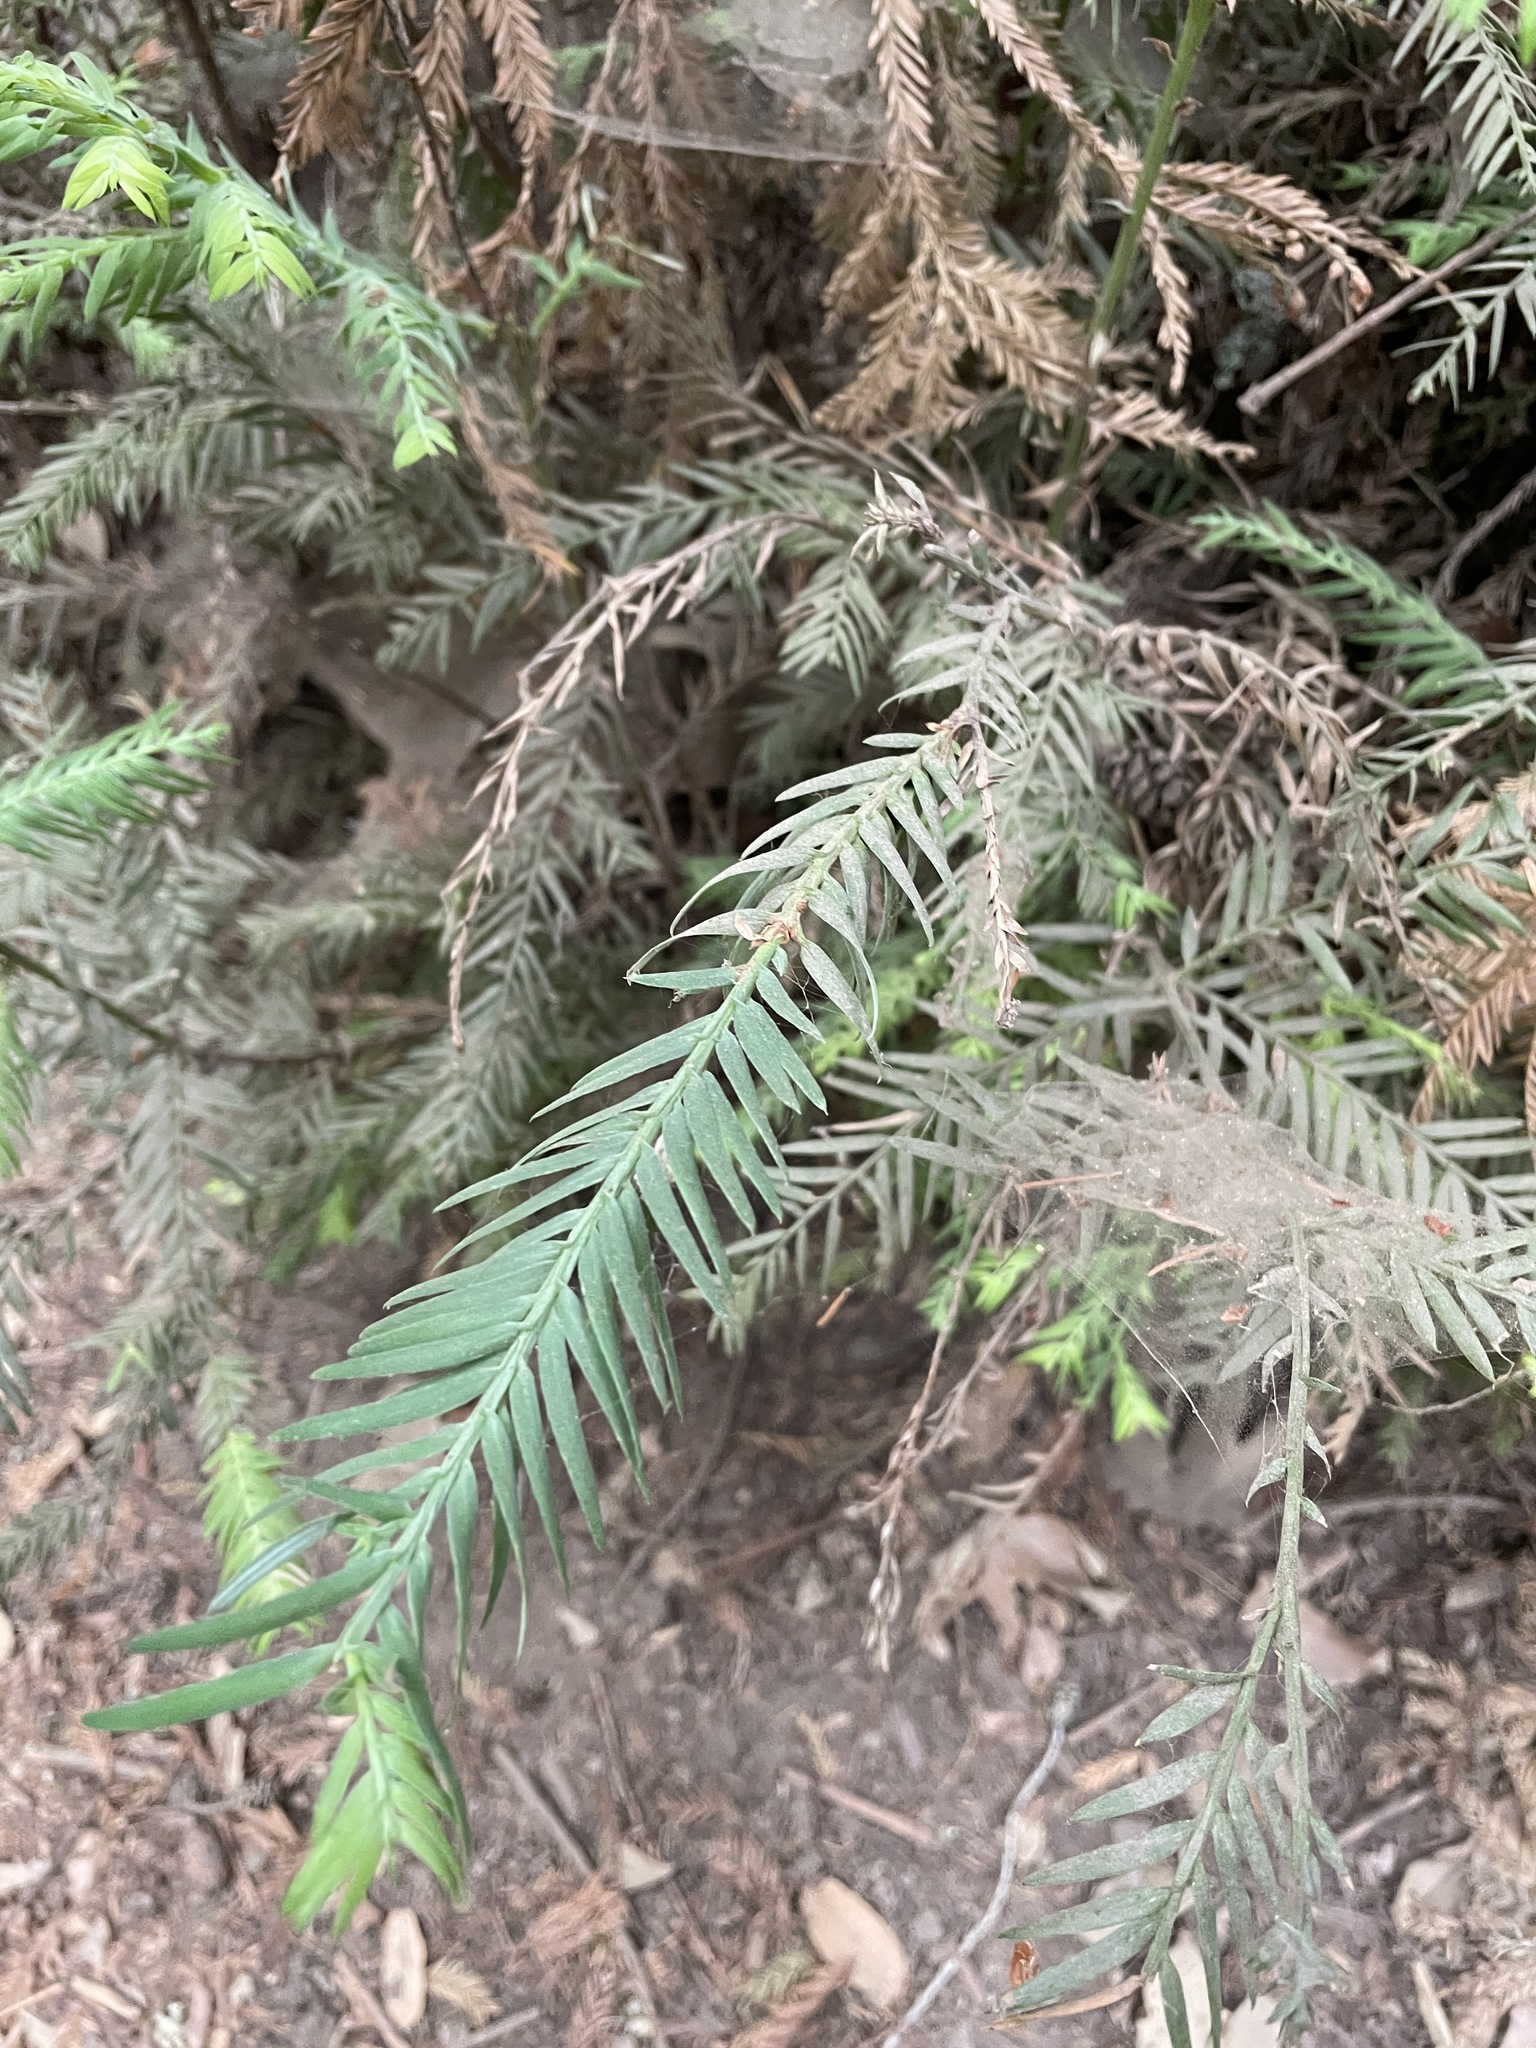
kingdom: Plantae
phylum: Tracheophyta
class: Pinopsida
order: Pinales
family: Cupressaceae
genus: Sequoia
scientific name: Sequoia sempervirens
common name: Coast redwood
